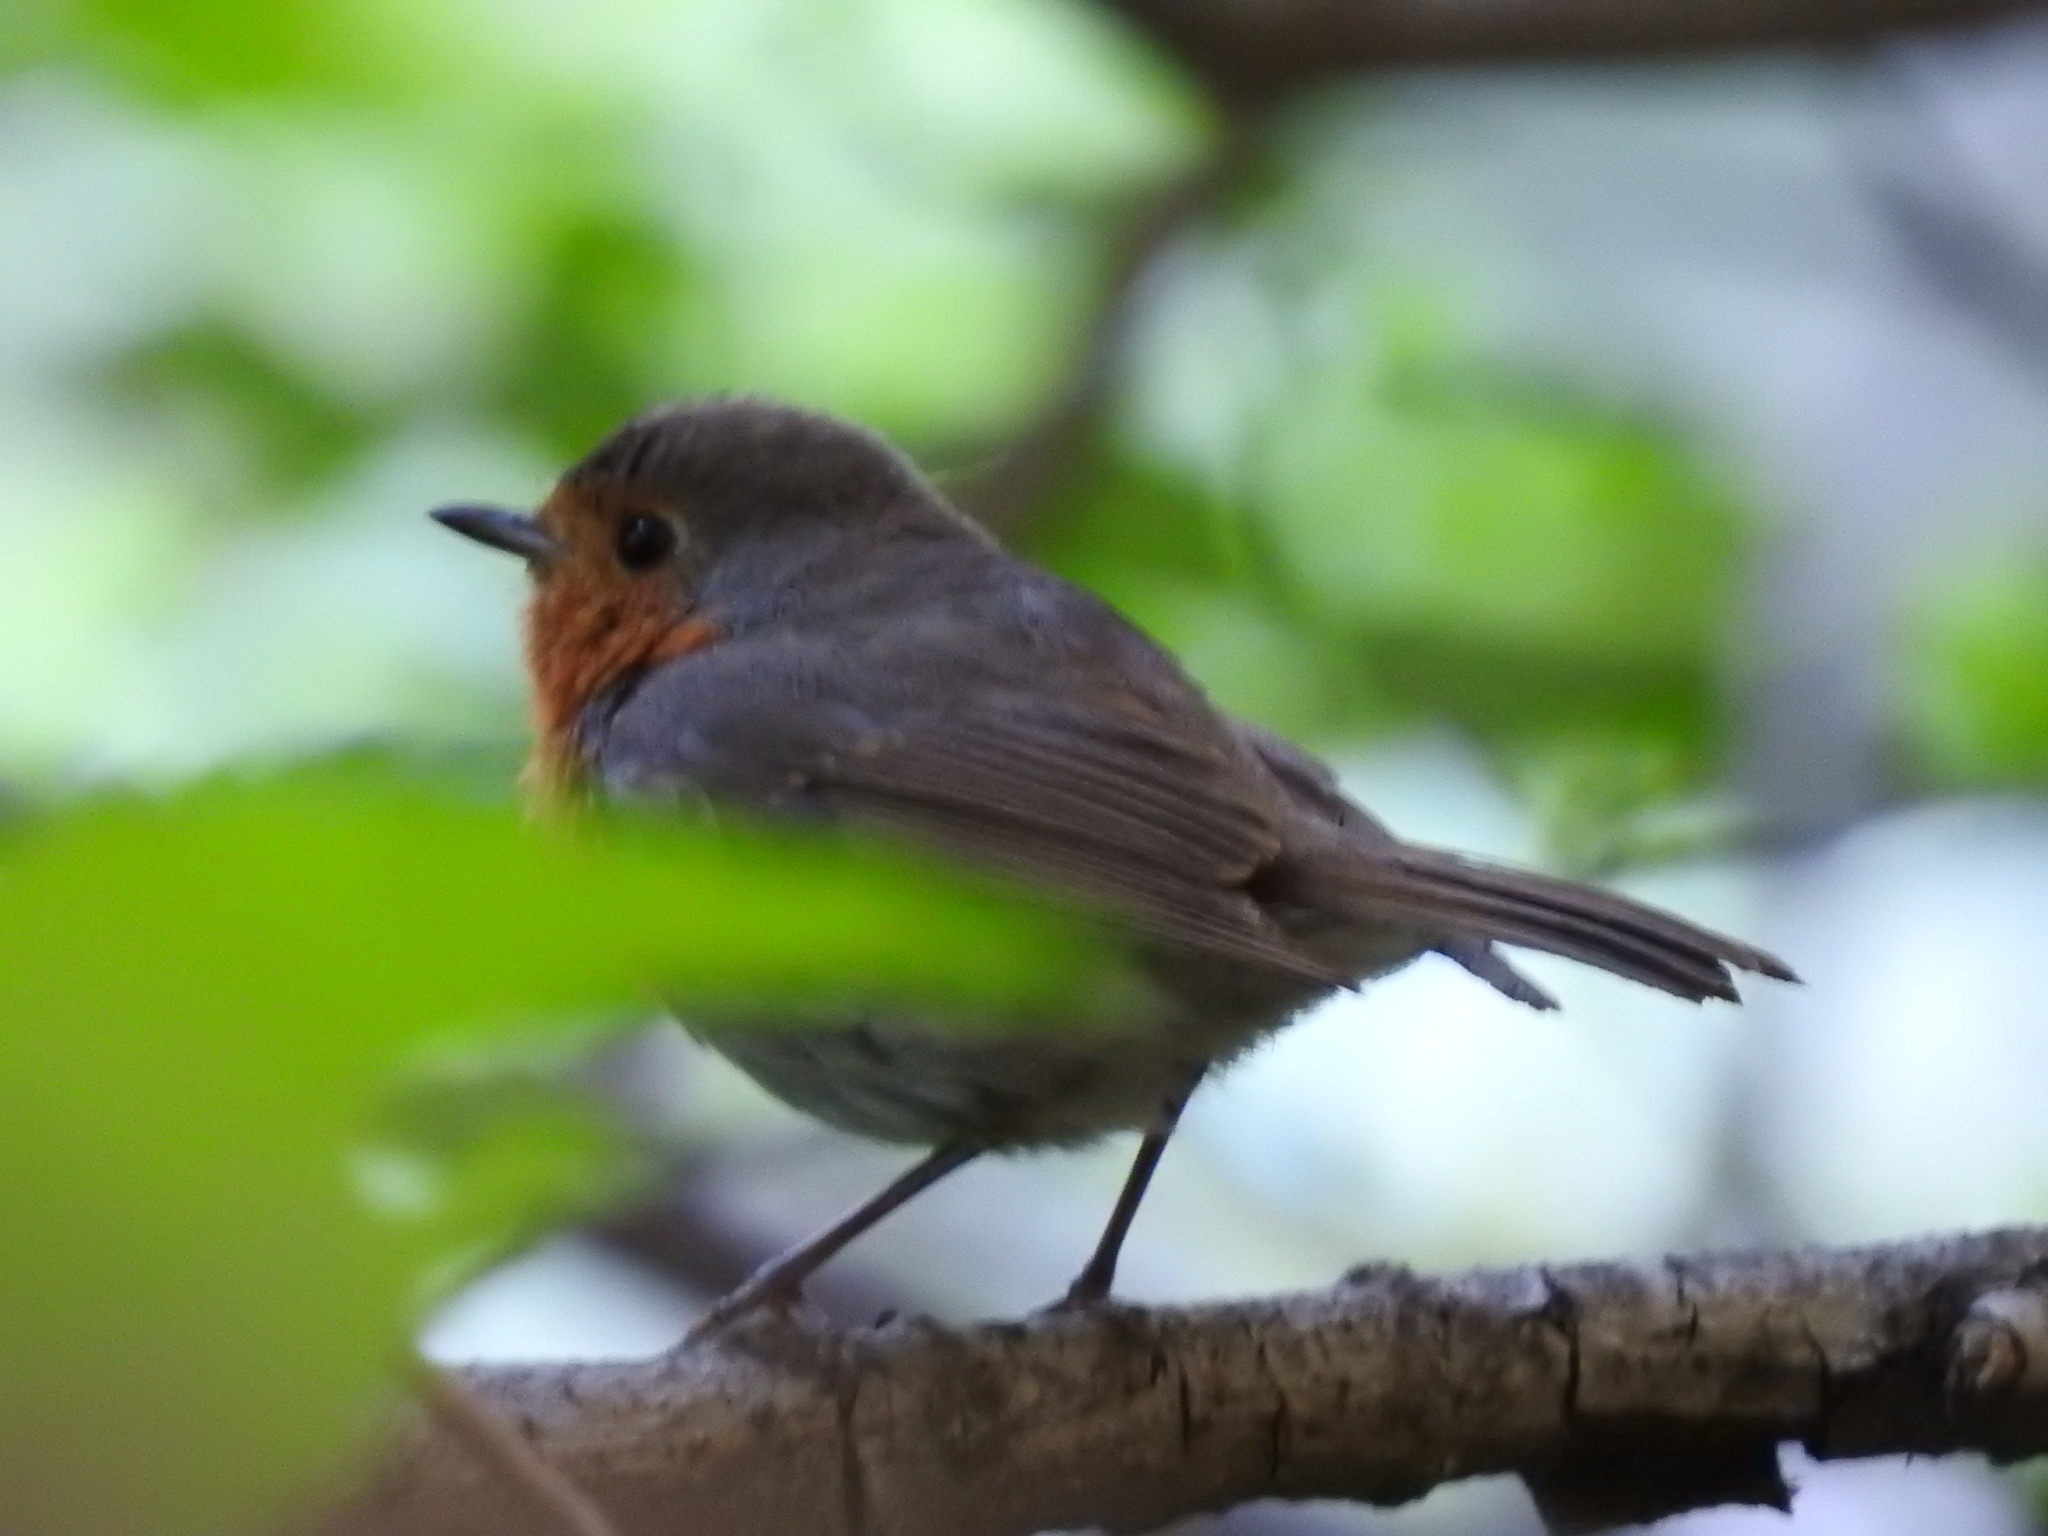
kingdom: Animalia
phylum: Chordata
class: Aves
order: Passeriformes
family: Muscicapidae
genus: Erithacus
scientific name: Erithacus rubecula
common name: European robin
